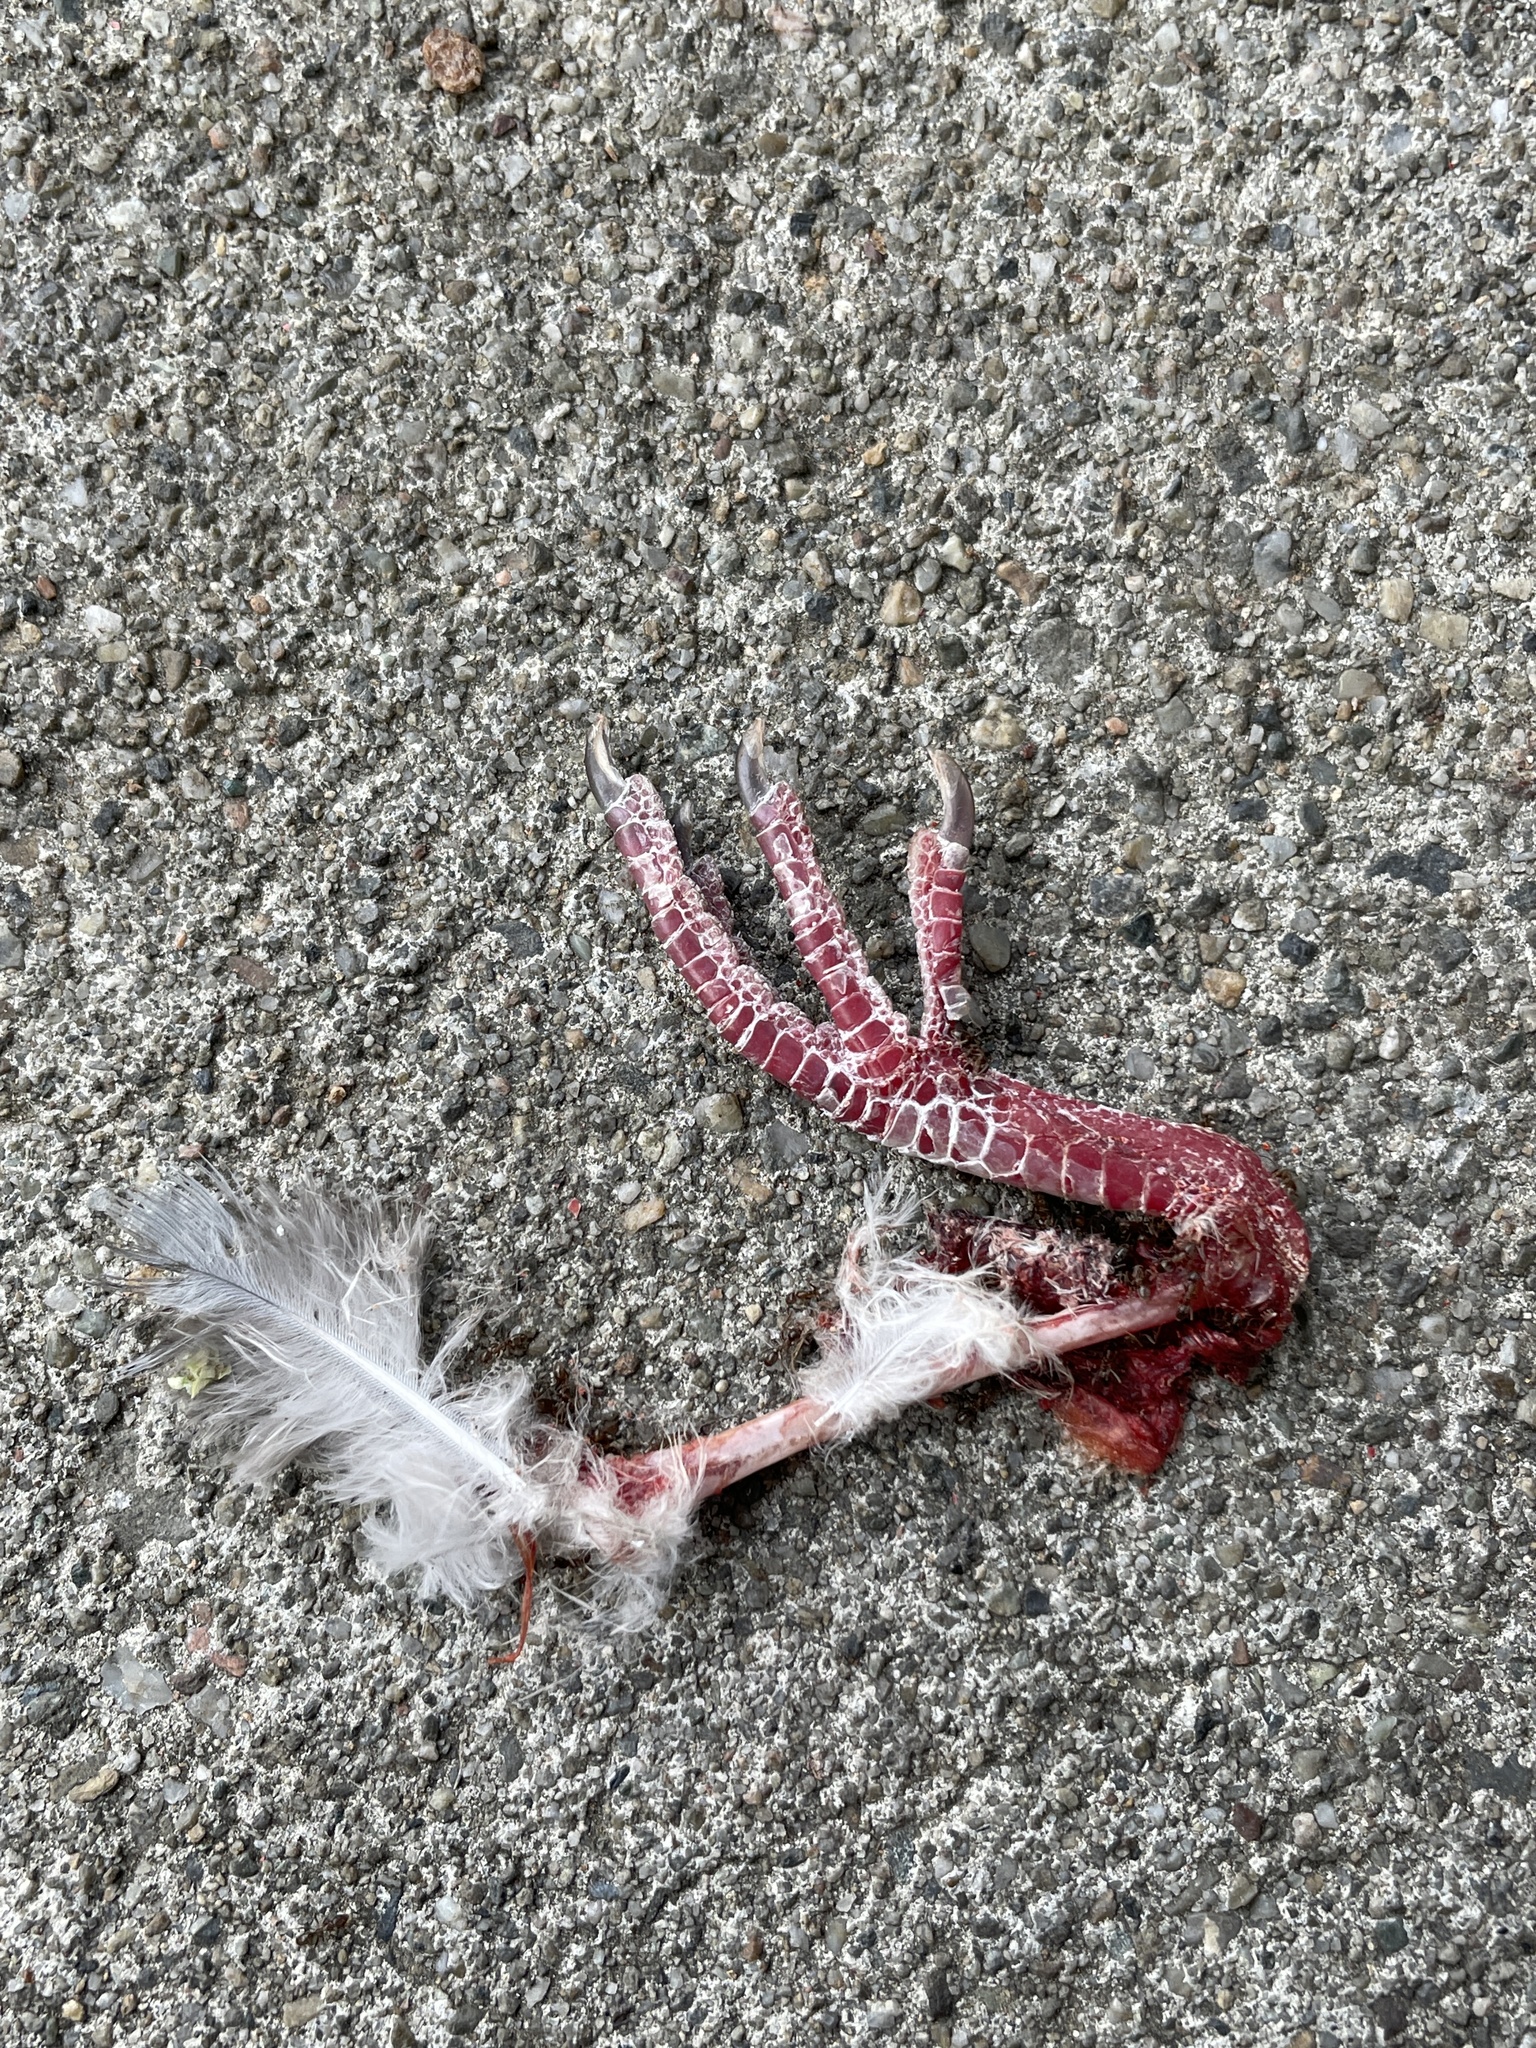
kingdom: Animalia
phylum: Chordata
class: Aves
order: Columbiformes
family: Columbidae
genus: Columba
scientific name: Columba livia
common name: Rock pigeon
